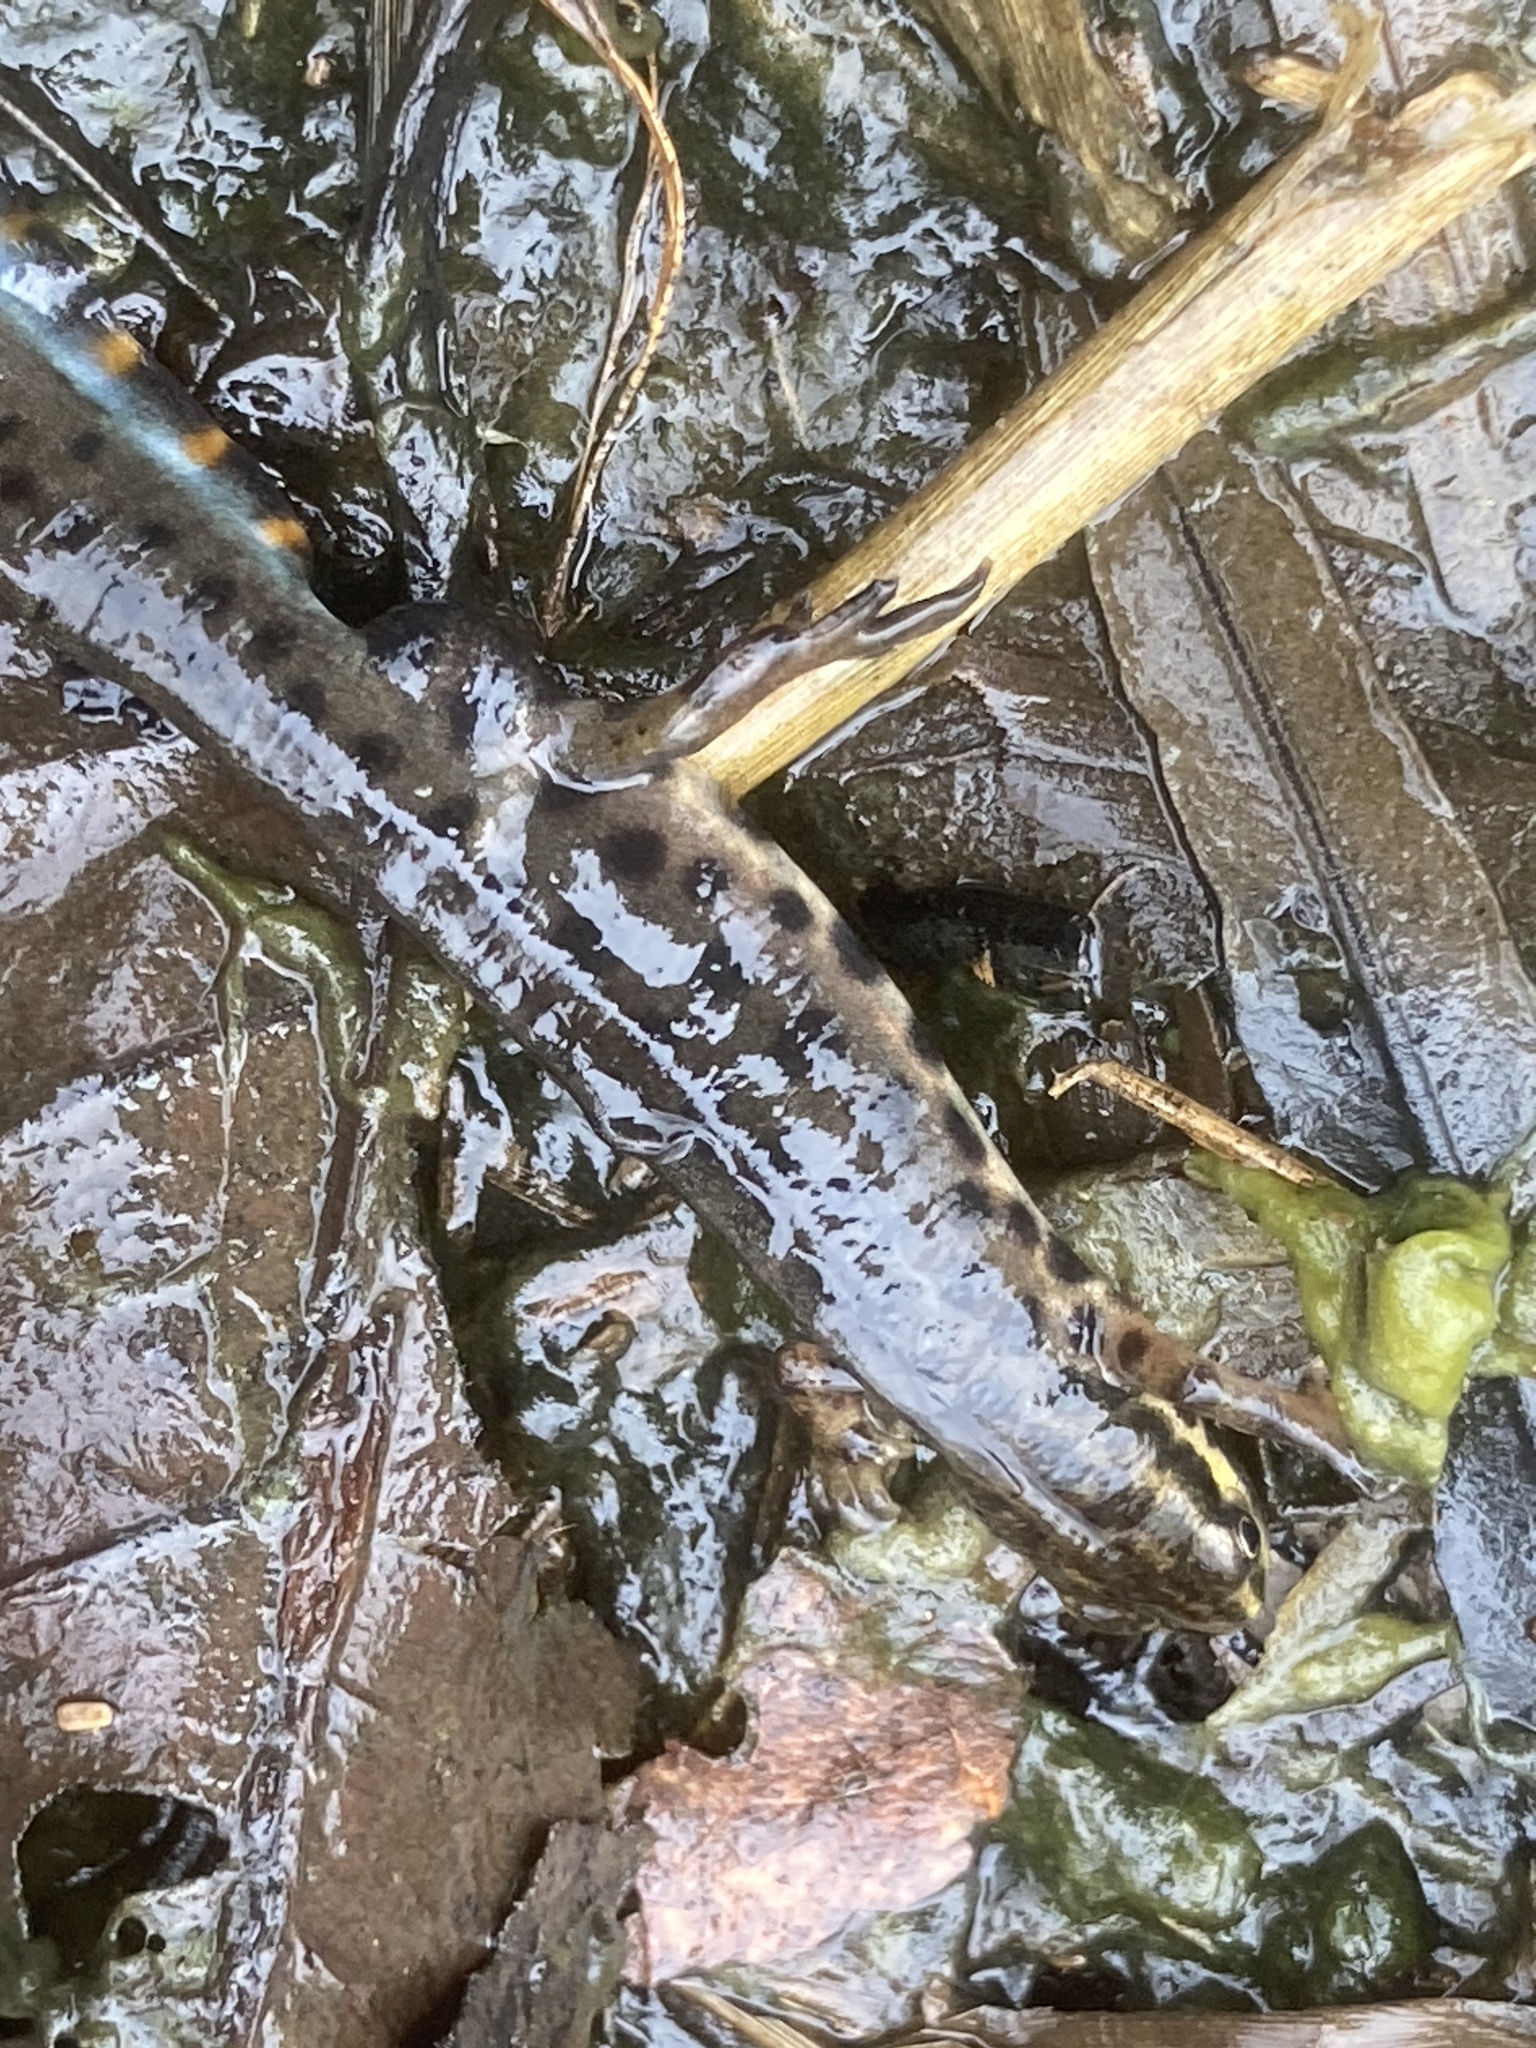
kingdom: Animalia
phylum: Chordata
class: Amphibia
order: Caudata
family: Salamandridae
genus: Lissotriton
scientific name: Lissotriton vulgaris
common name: Smooth newt
